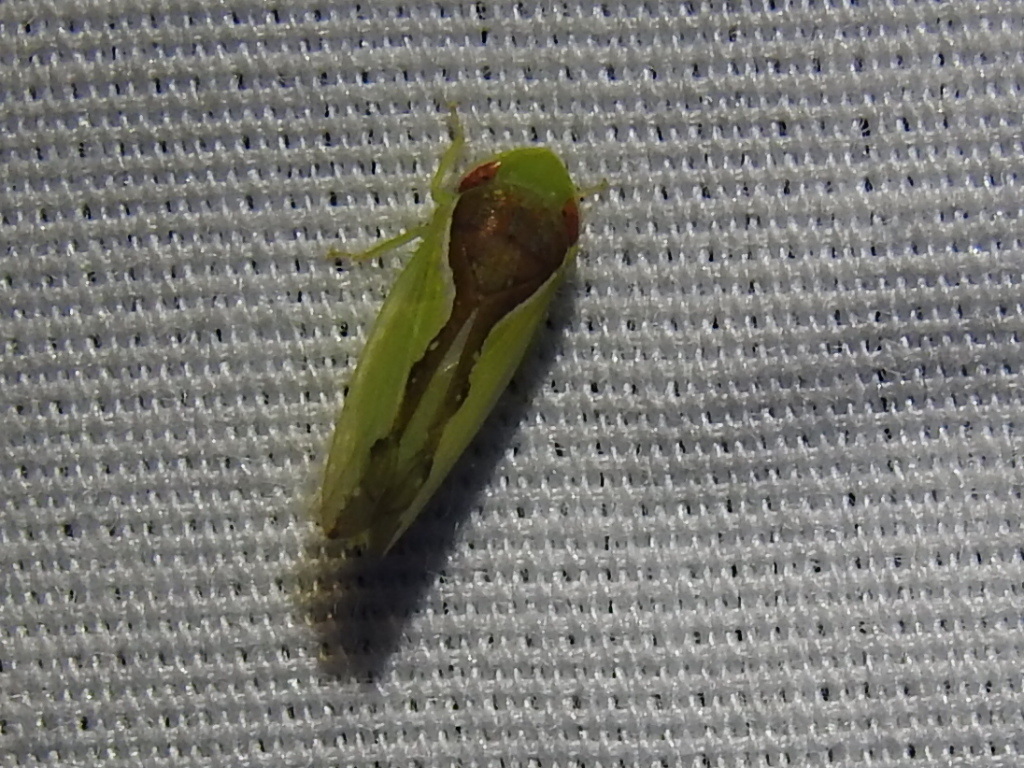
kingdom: Animalia
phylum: Arthropoda
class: Insecta
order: Hemiptera
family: Cicadellidae
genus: Omansobara ing
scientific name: Omansobara ing Omansobara palliolata
